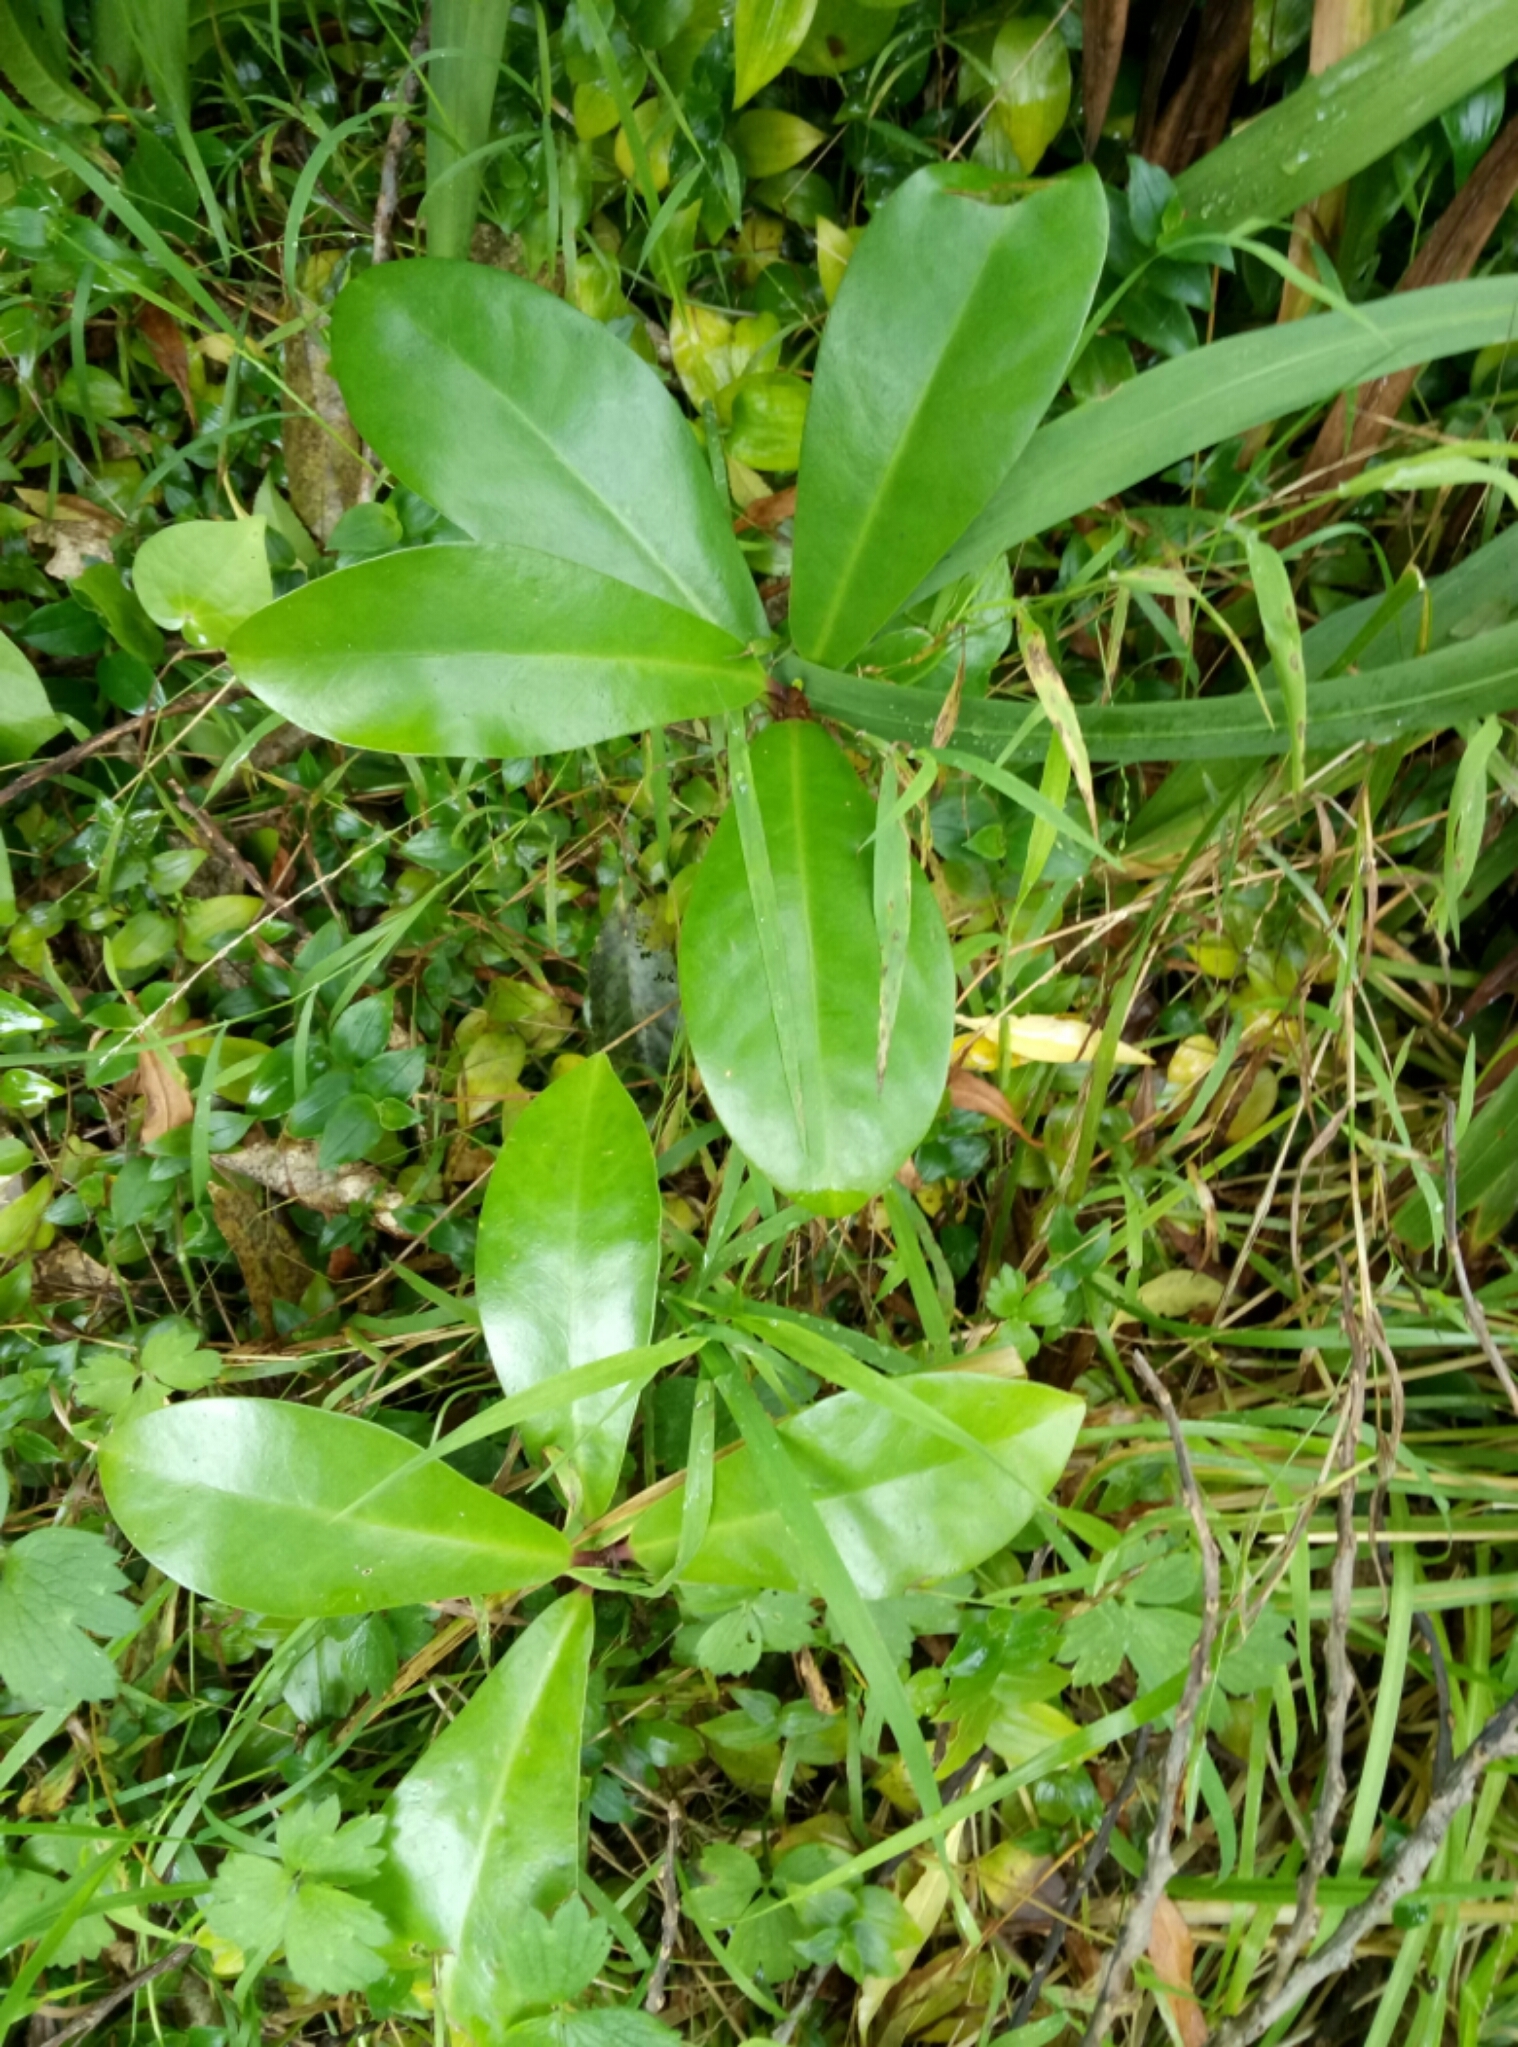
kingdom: Plantae
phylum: Tracheophyta
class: Magnoliopsida
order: Cucurbitales
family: Corynocarpaceae
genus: Corynocarpus
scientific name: Corynocarpus laevigatus
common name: New zealand laurel
